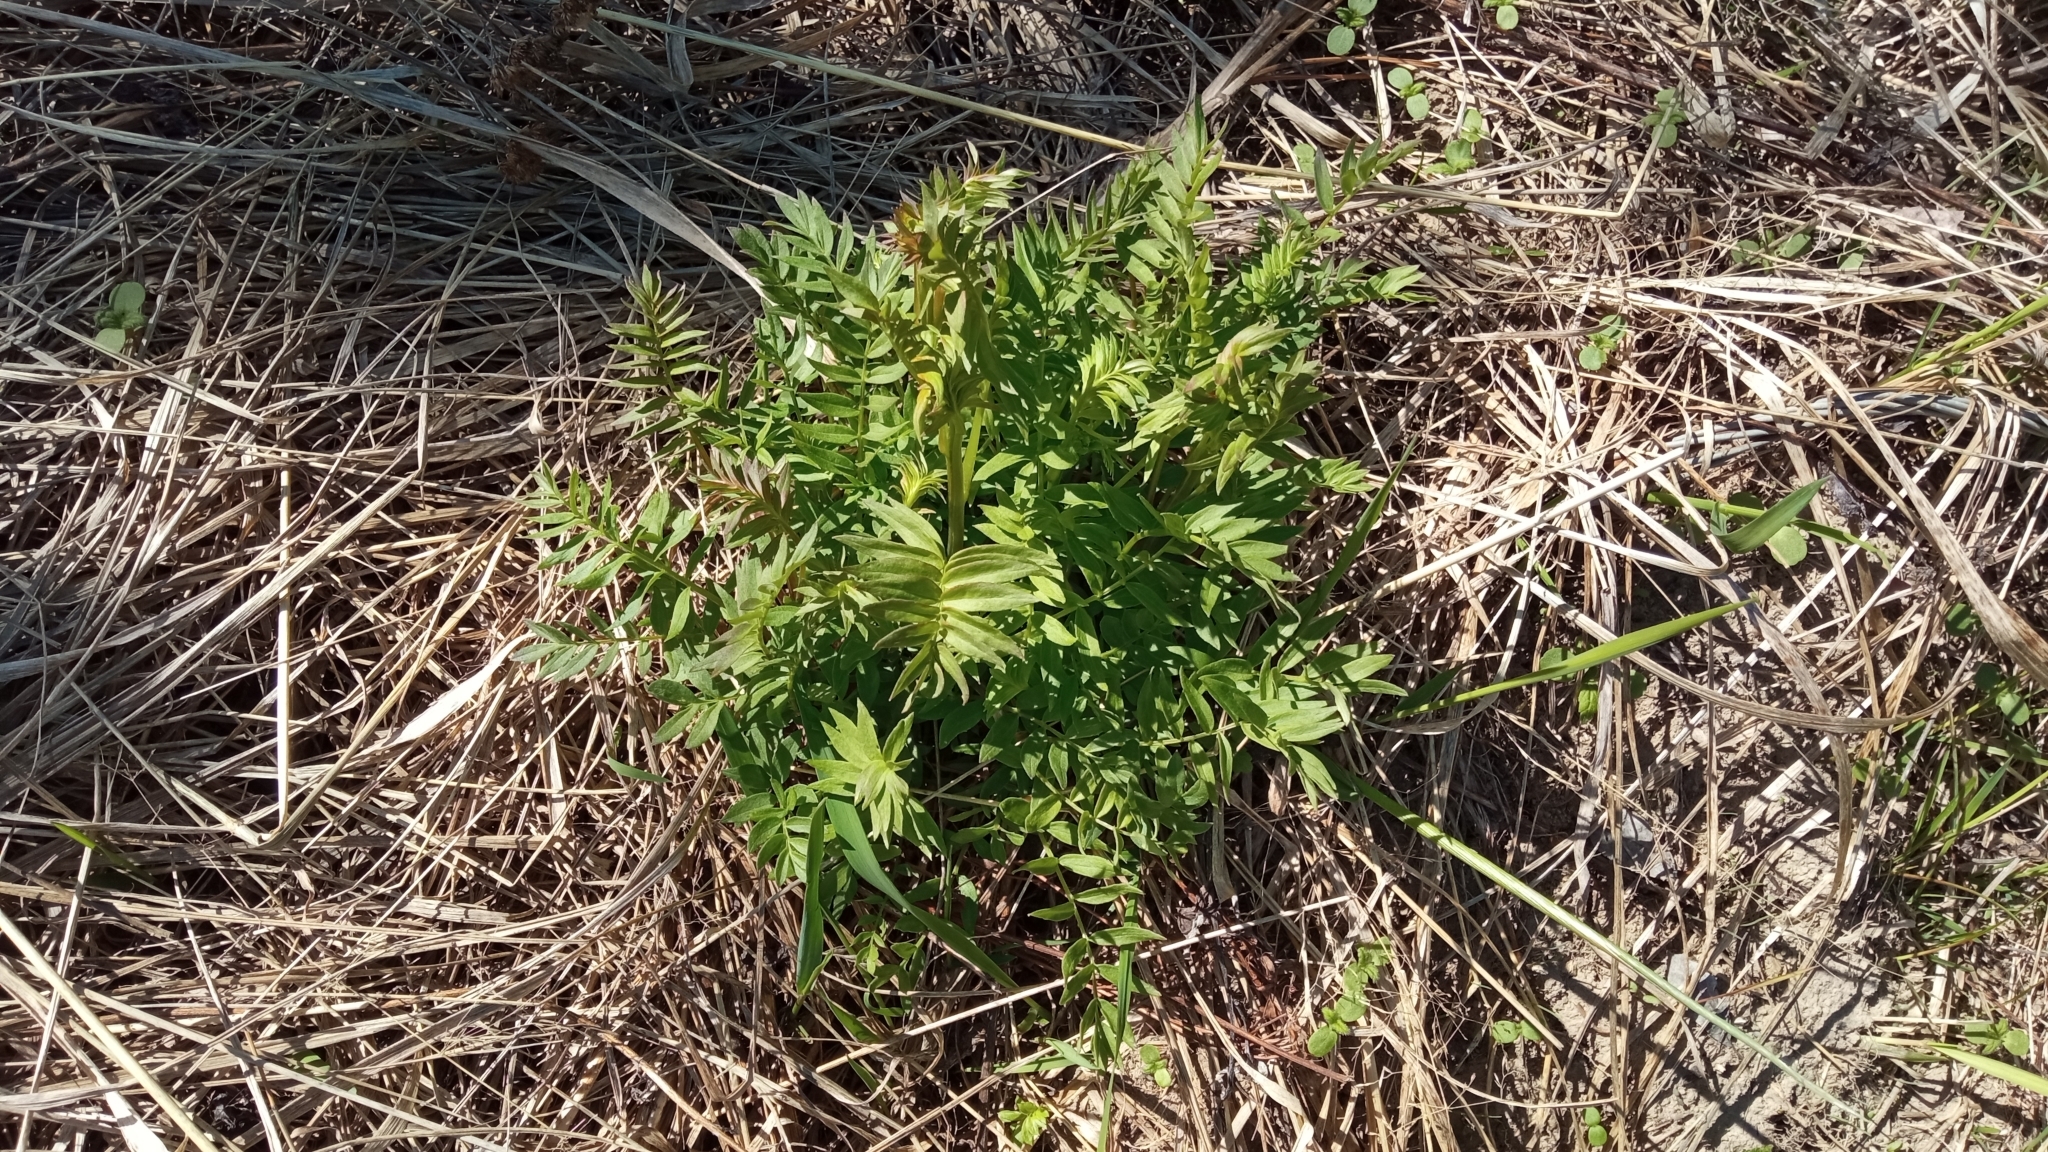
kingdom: Plantae
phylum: Tracheophyta
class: Magnoliopsida
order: Ericales
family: Polemoniaceae
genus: Polemonium
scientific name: Polemonium caeruleum
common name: Jacob's-ladder
